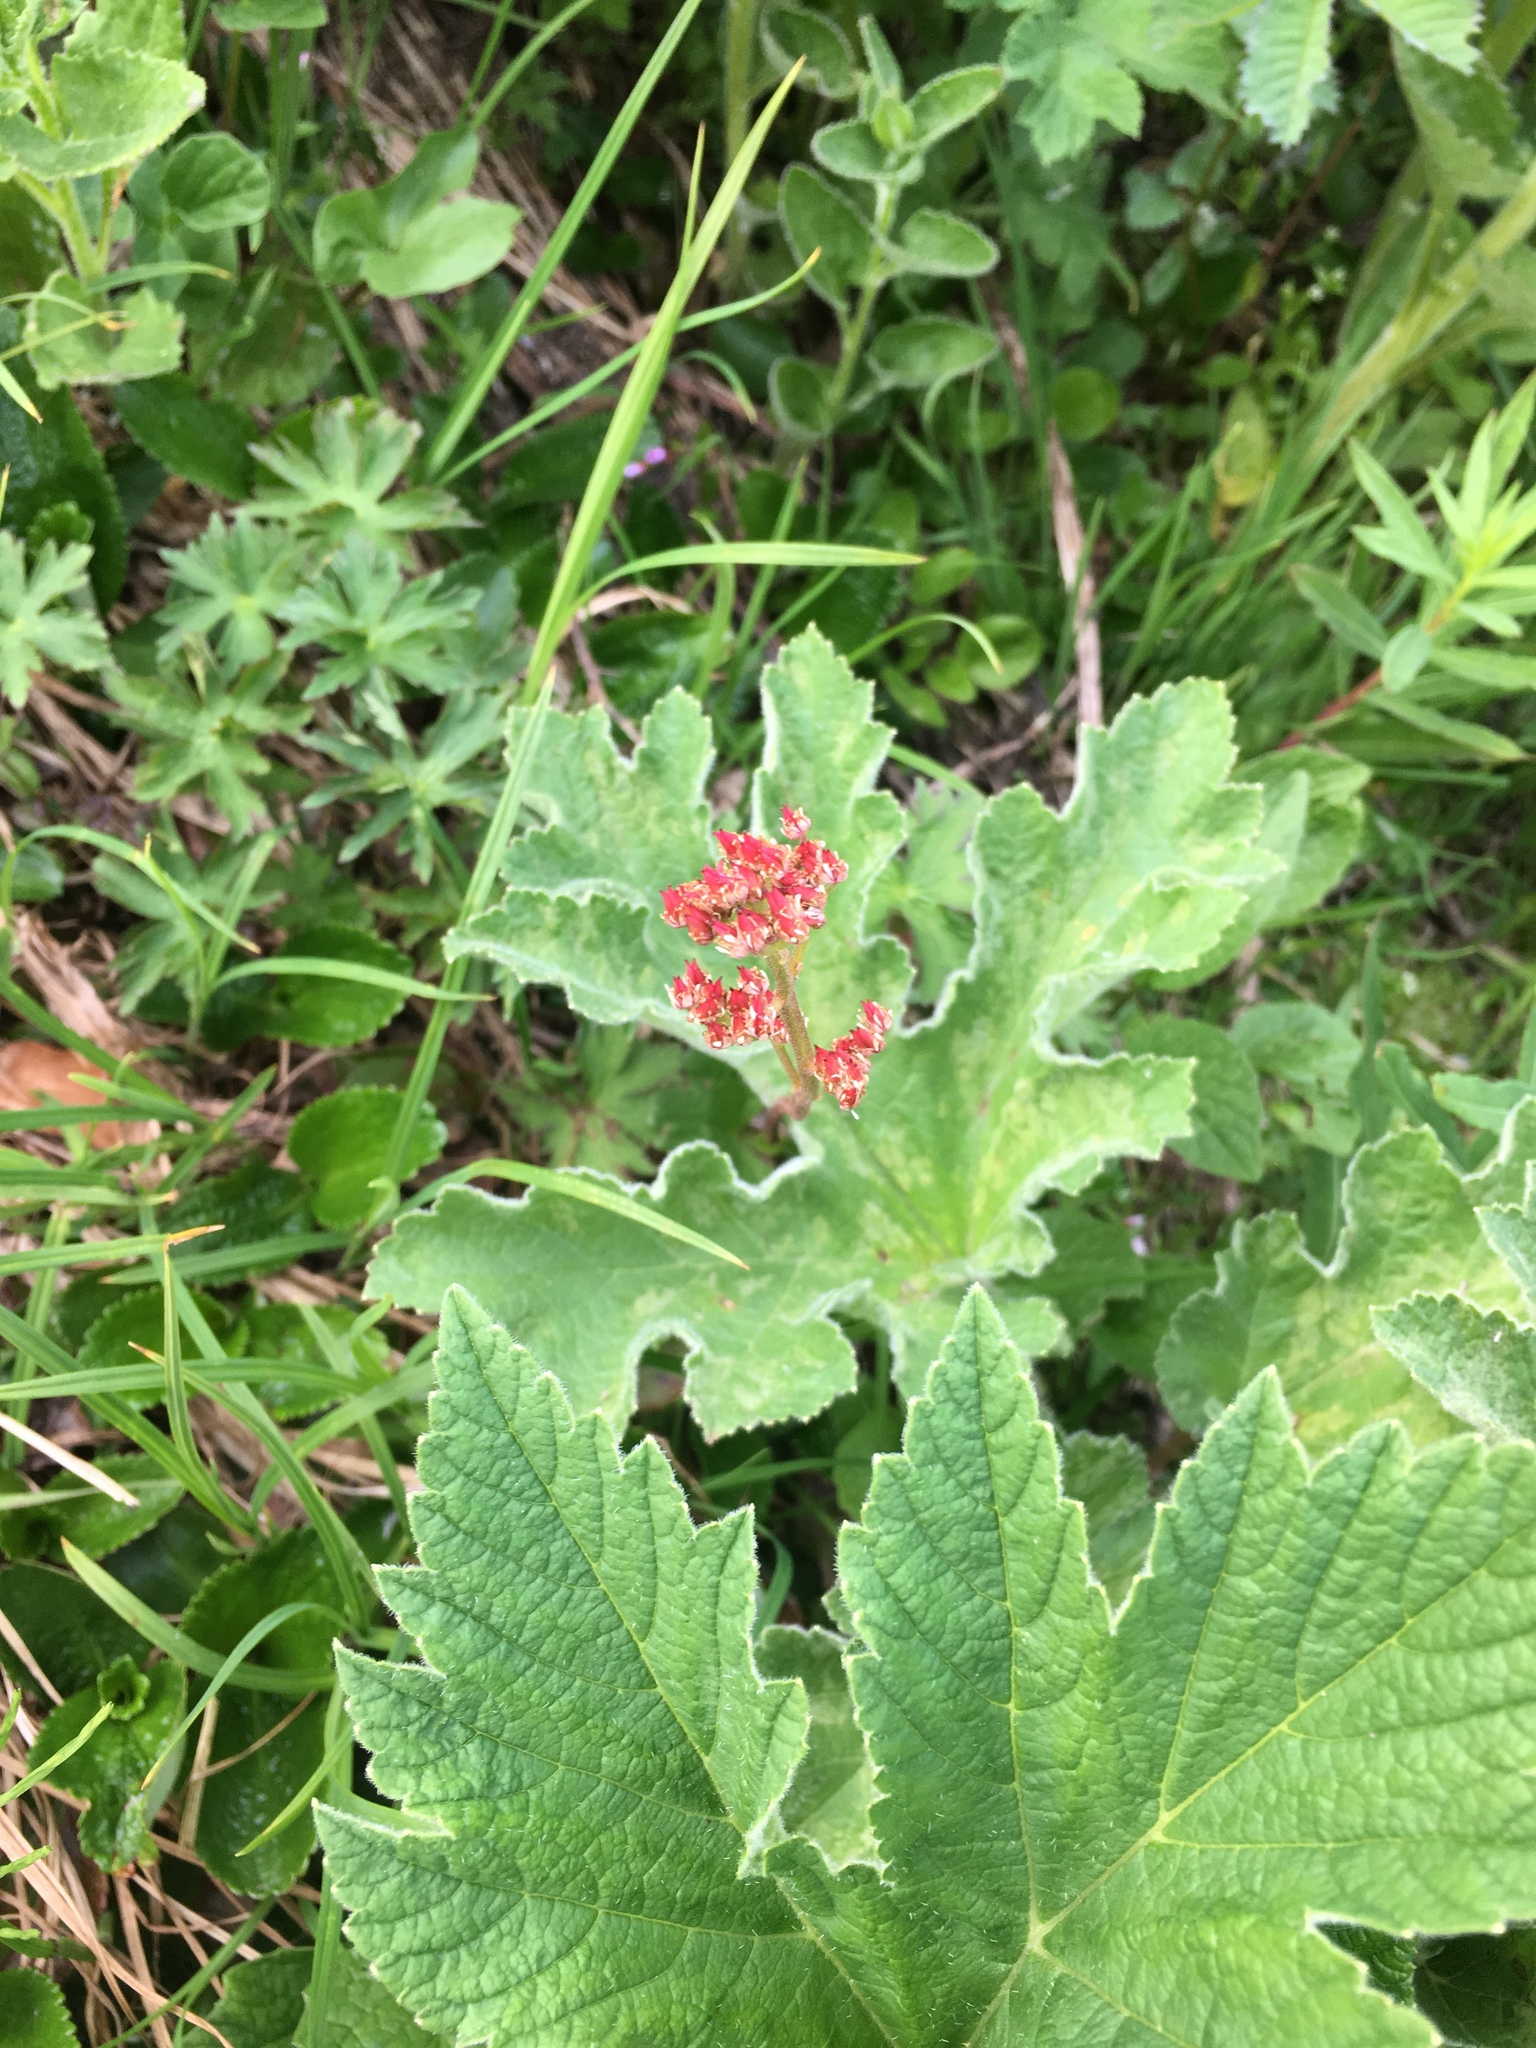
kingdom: Plantae
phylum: Tracheophyta
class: Magnoliopsida
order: Saxifragales
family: Saxifragaceae
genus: Leptarrhena
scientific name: Leptarrhena pyrolifolia
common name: Leatherleaf-saxifrage
